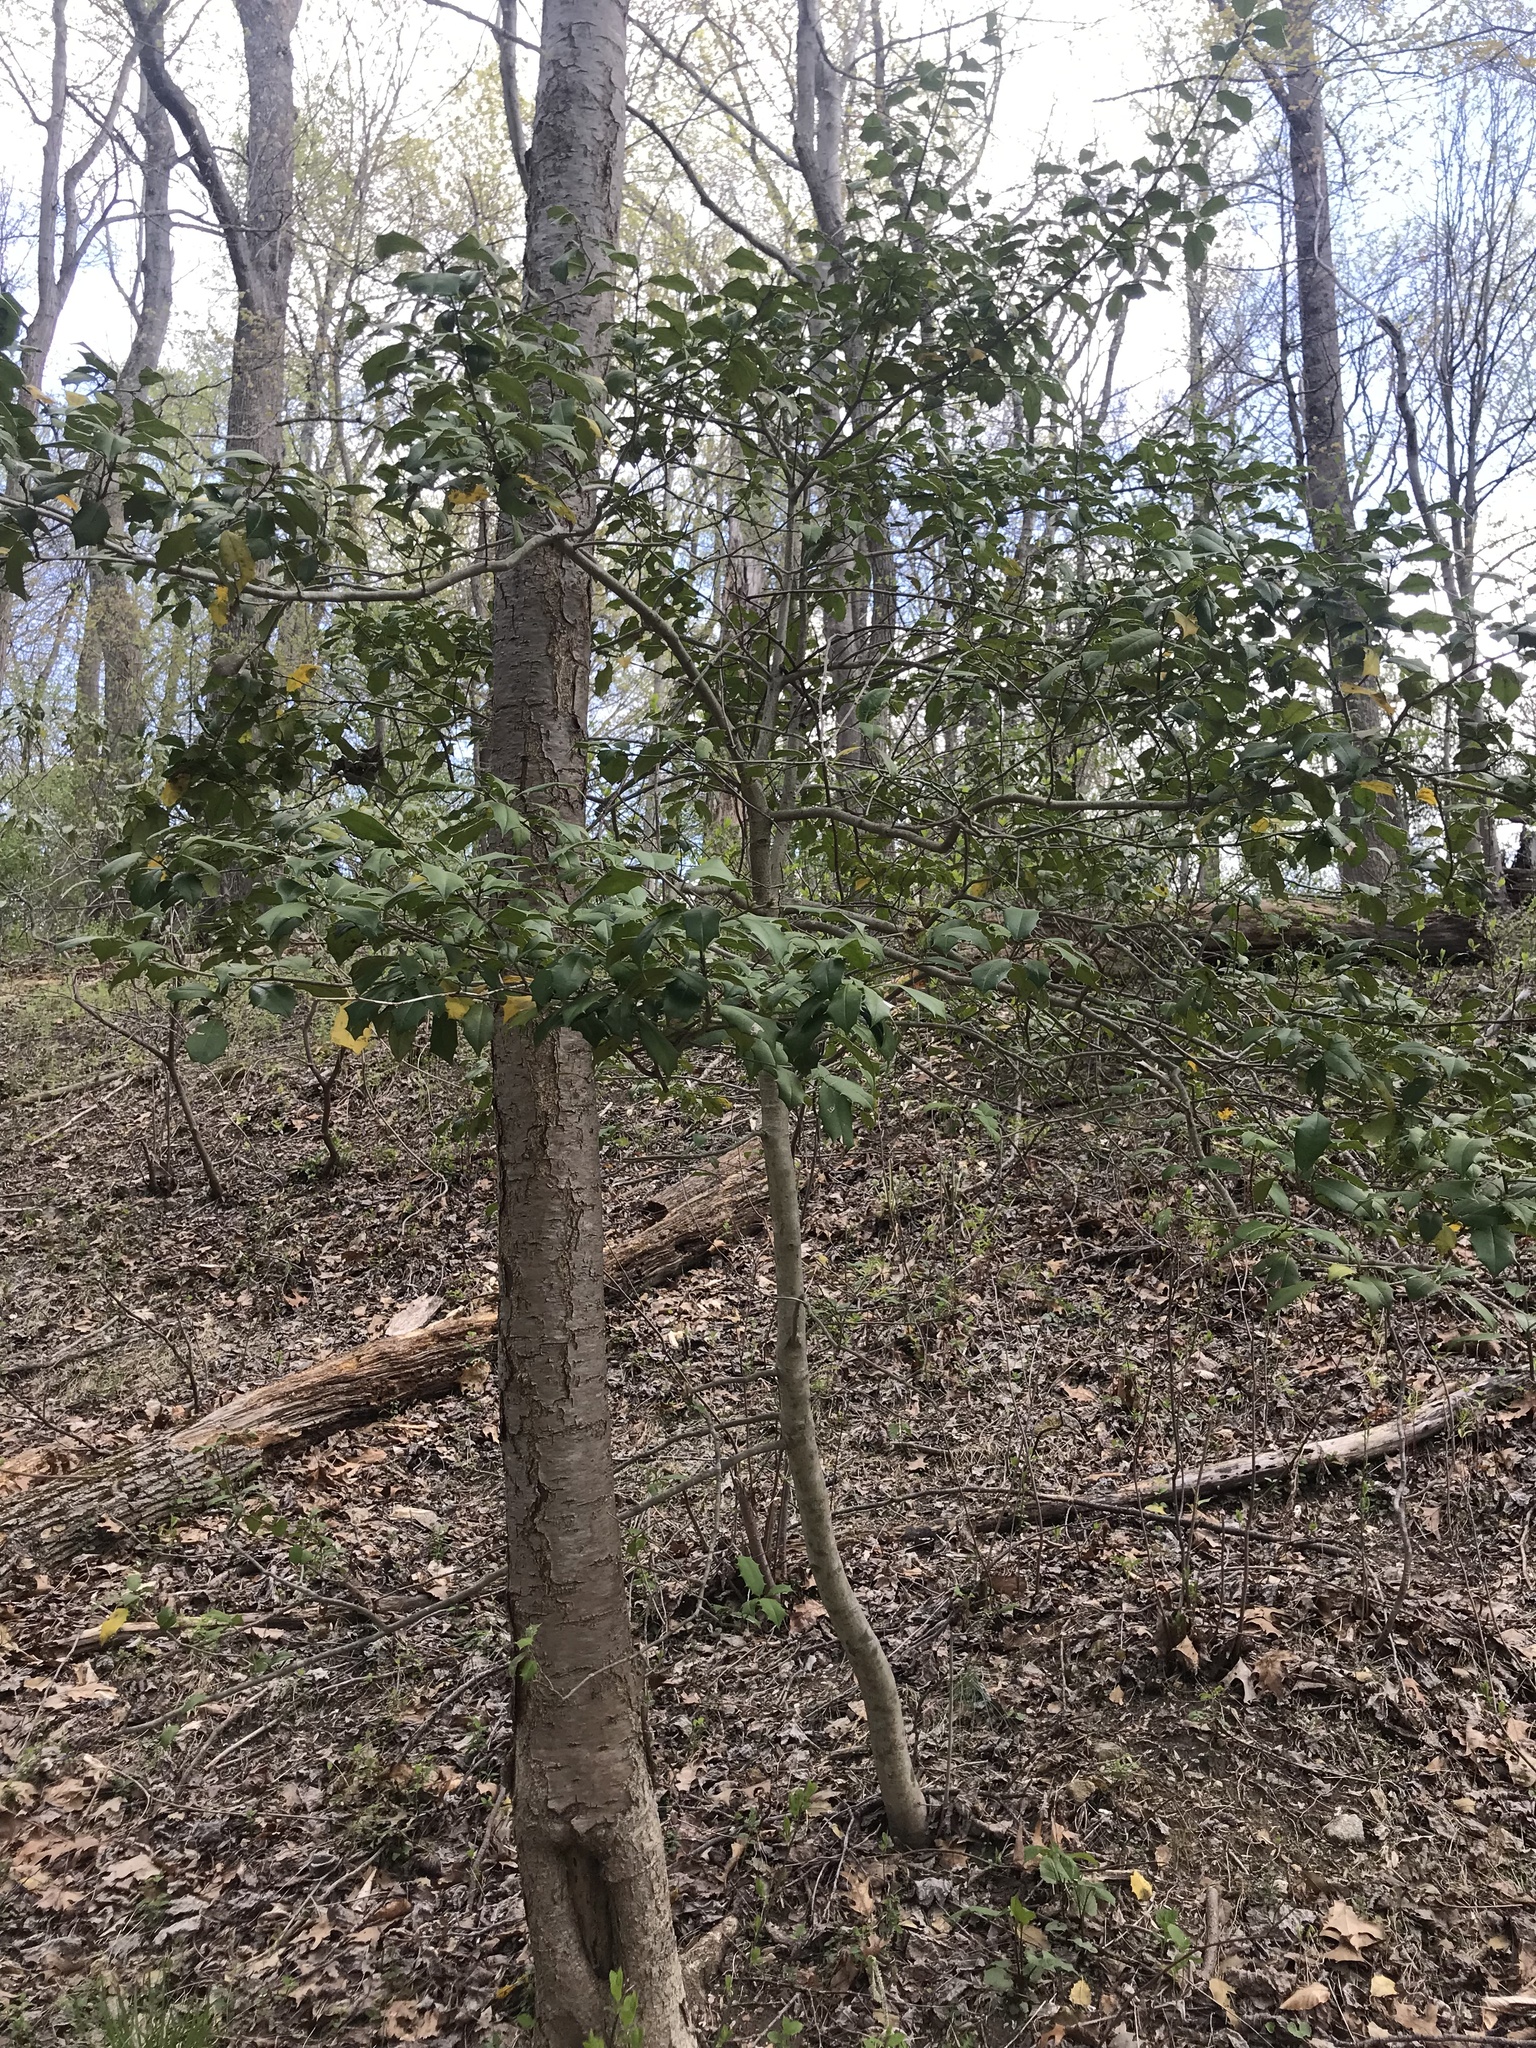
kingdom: Plantae
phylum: Tracheophyta
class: Magnoliopsida
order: Aquifoliales
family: Aquifoliaceae
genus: Ilex
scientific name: Ilex opaca
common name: American holly
